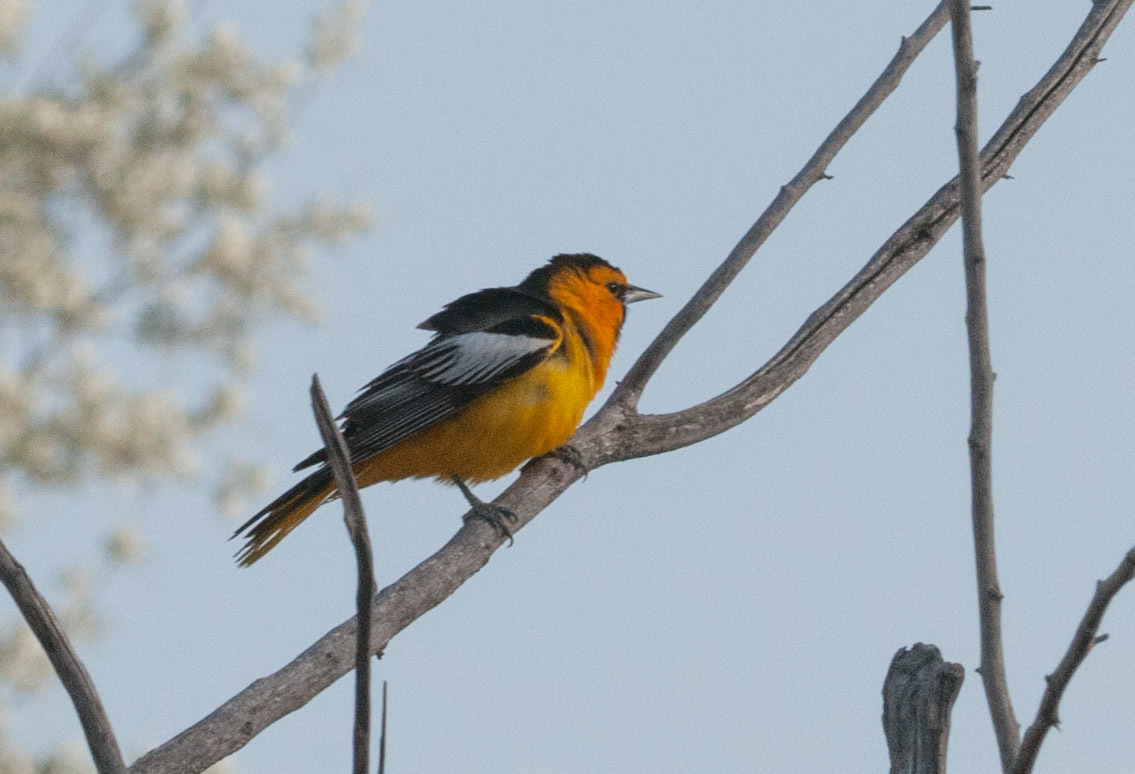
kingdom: Animalia
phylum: Chordata
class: Aves
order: Passeriformes
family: Icteridae
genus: Icterus
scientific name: Icterus bullockii
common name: Bullock's oriole
